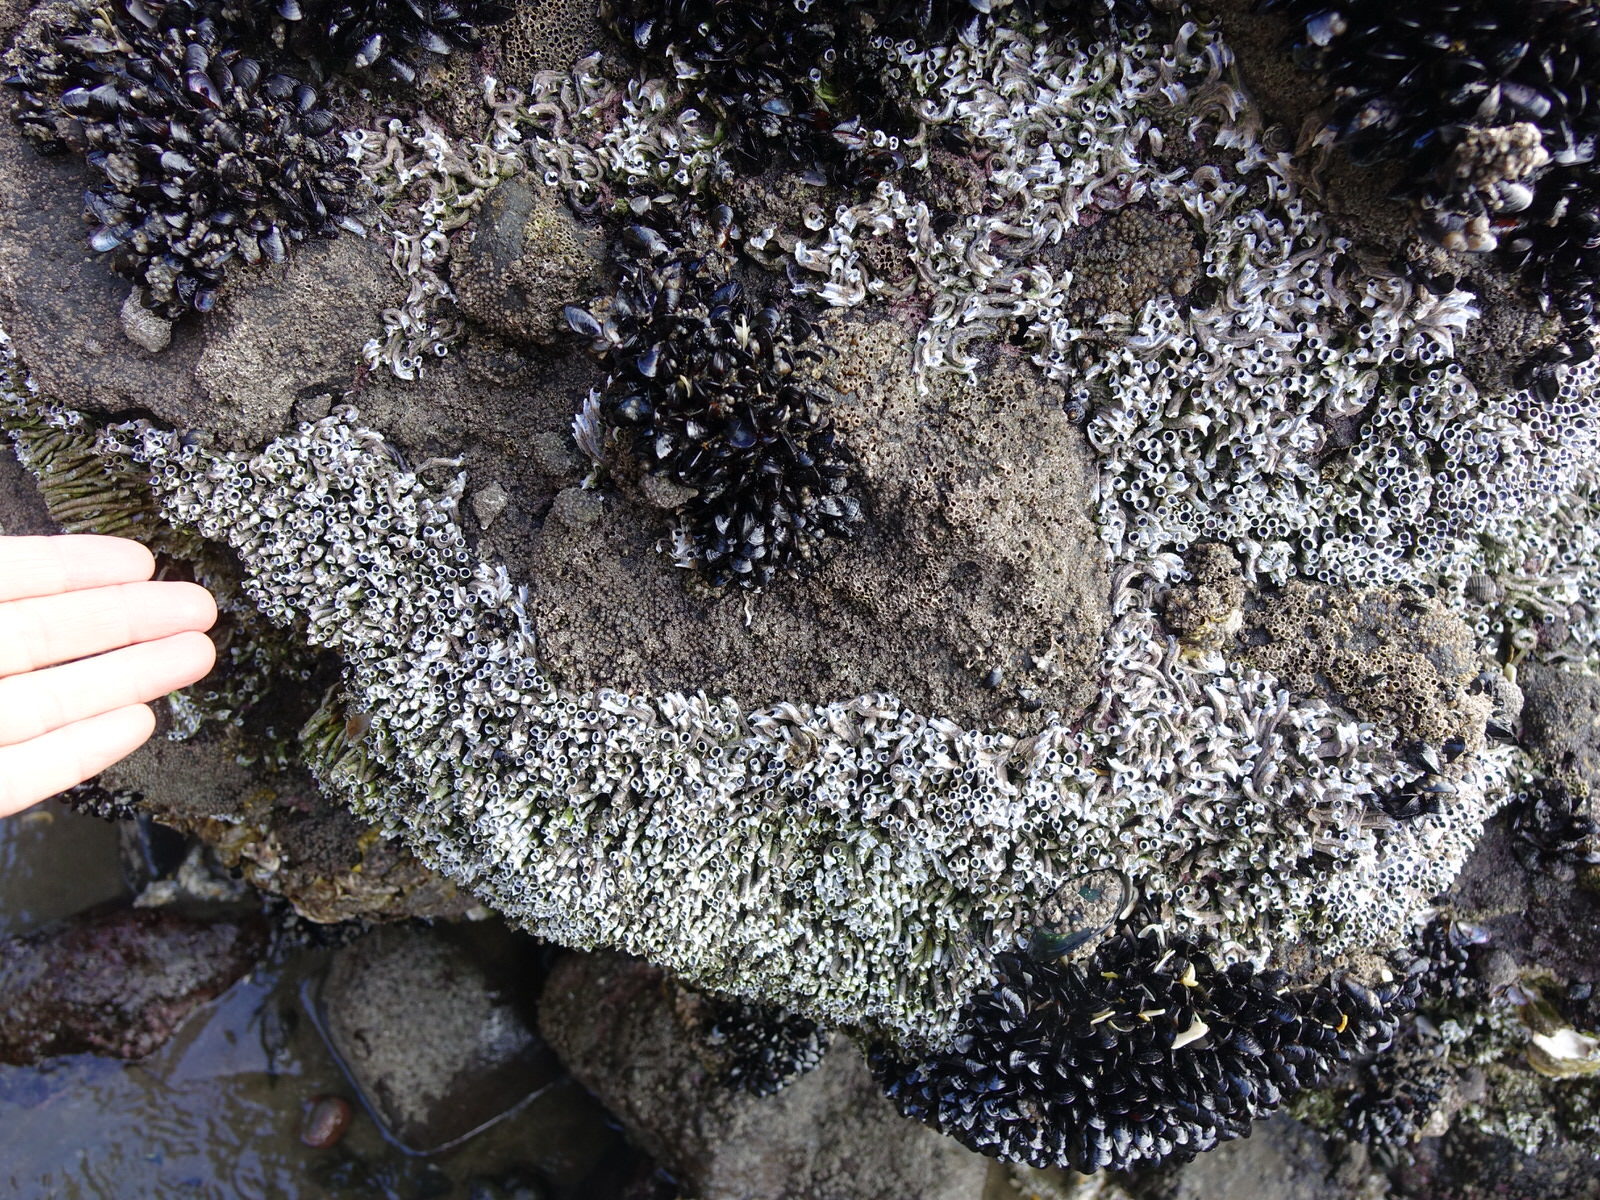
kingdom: Animalia
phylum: Annelida
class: Polychaeta
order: Sabellida
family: Serpulidae
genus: Spirobranchus
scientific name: Spirobranchus cariniferus
